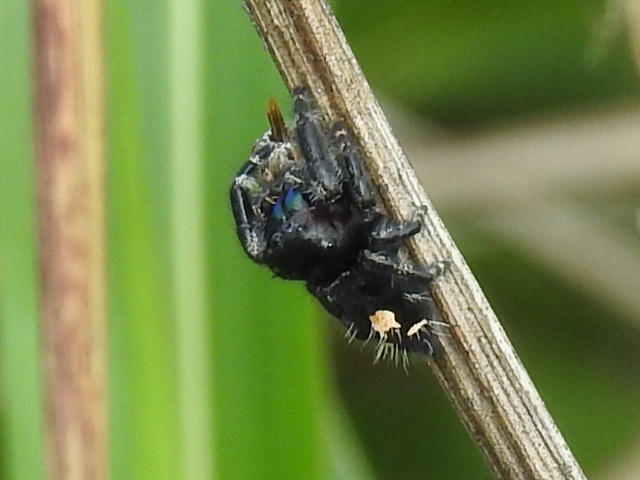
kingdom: Animalia
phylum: Arthropoda
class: Arachnida
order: Araneae
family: Salticidae
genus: Phidippus
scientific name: Phidippus audax
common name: Bold jumper
